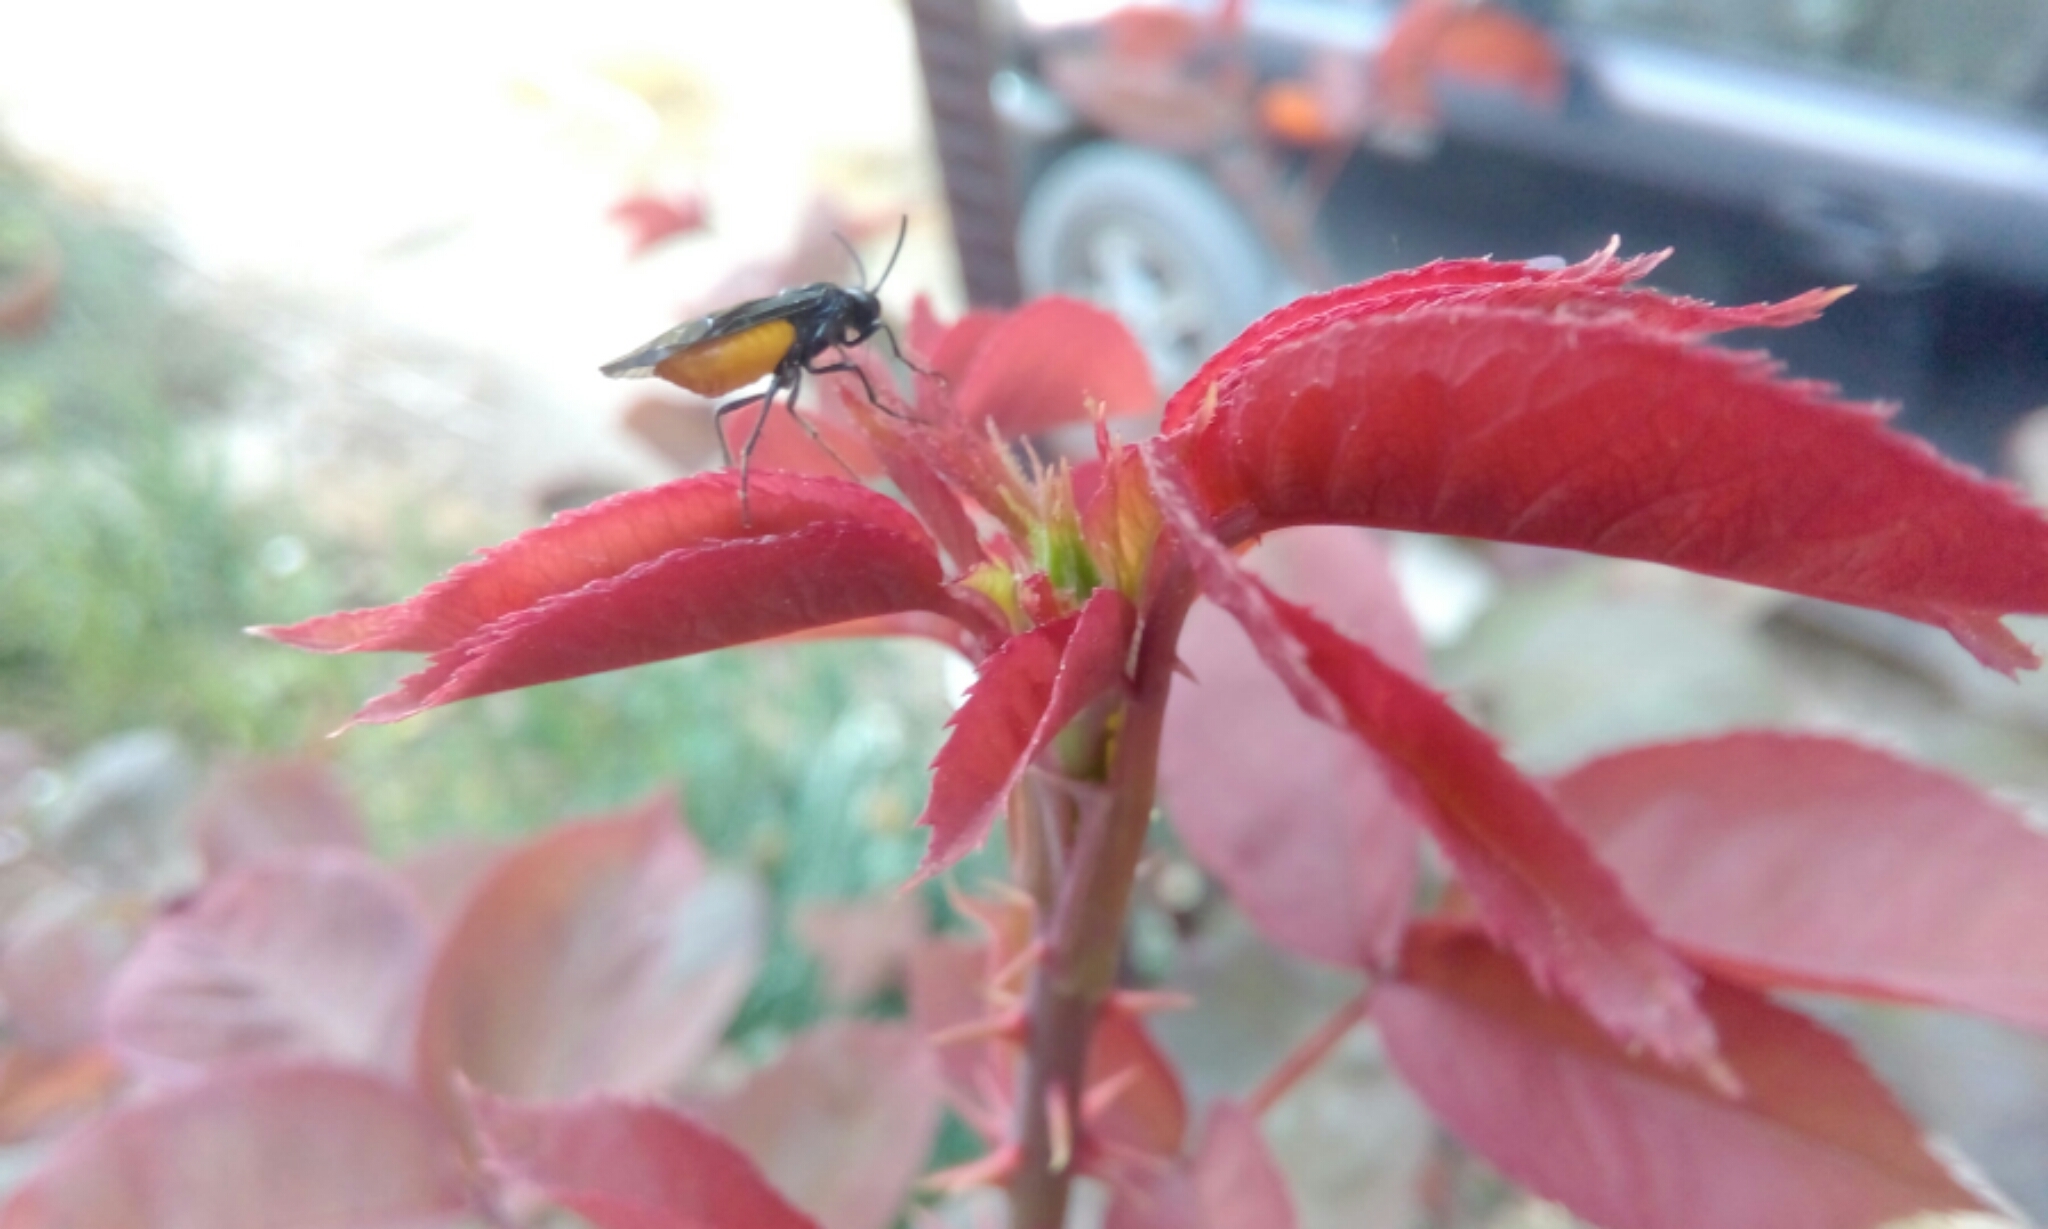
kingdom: Animalia
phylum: Arthropoda
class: Insecta
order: Hymenoptera
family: Argidae
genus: Arge
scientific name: Arge pagana
